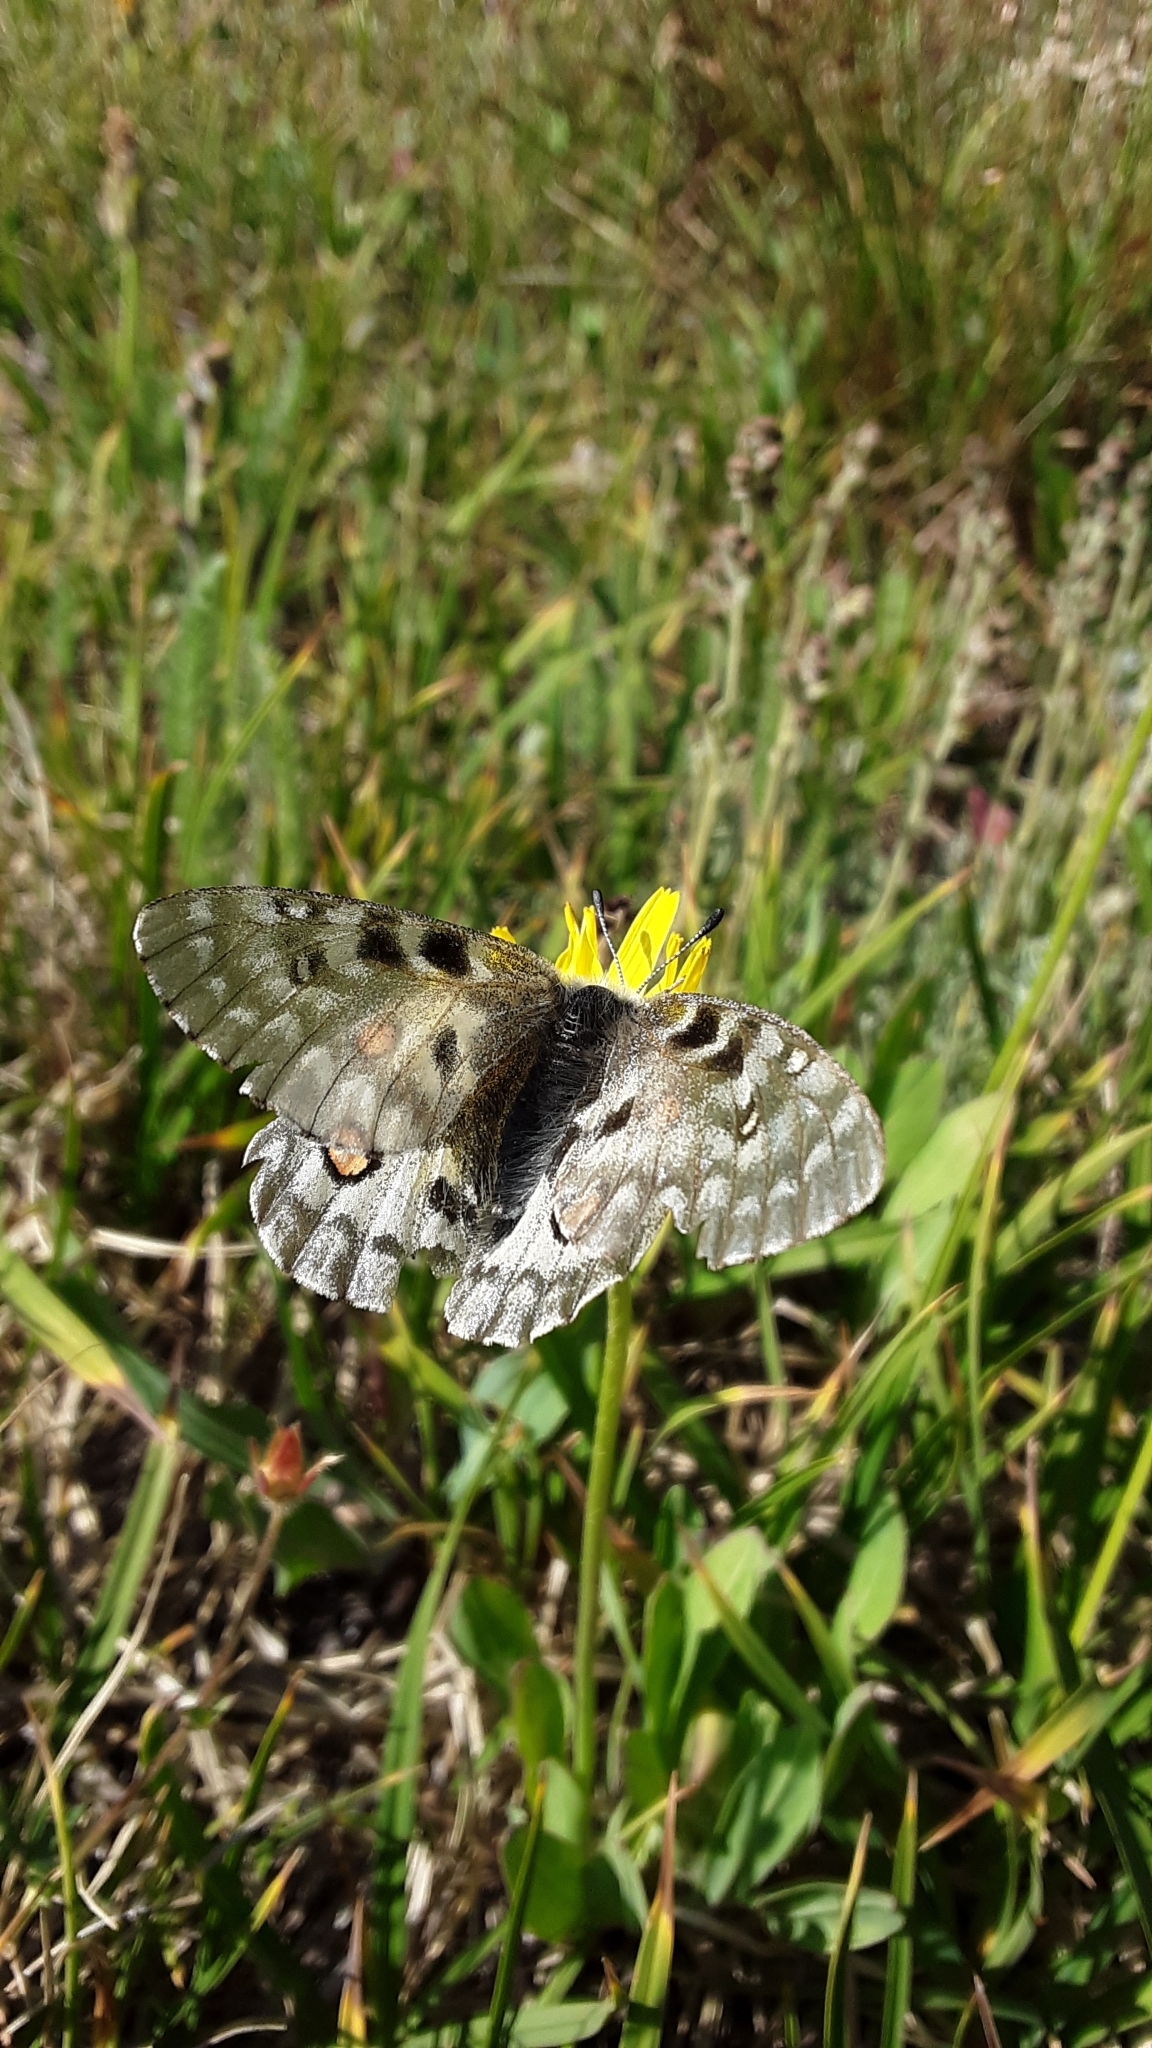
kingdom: Animalia
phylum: Arthropoda
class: Insecta
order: Lepidoptera
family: Papilionidae
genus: Parnassius
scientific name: Parnassius smintheus
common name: Mountain parnassian
